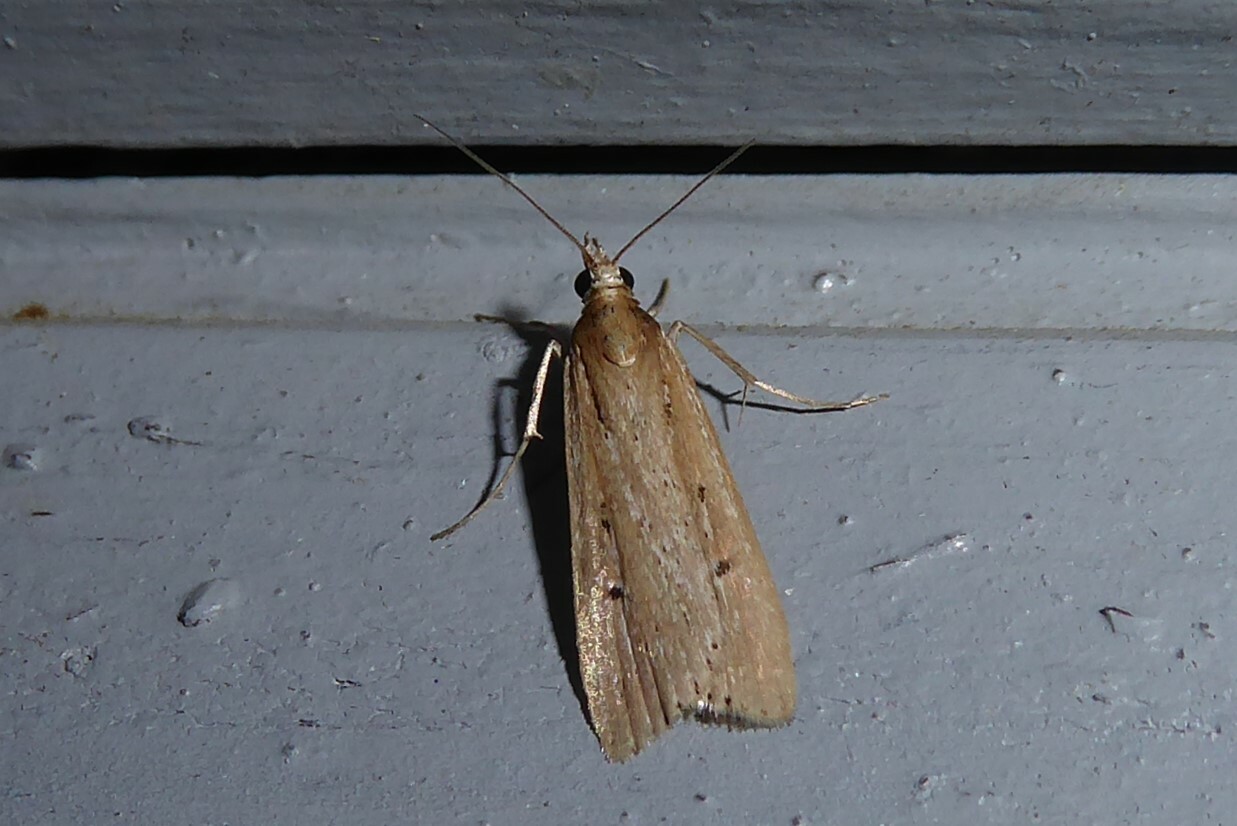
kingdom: Animalia
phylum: Arthropoda
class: Insecta
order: Lepidoptera
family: Crambidae
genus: Eudonia
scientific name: Eudonia sabulosella
